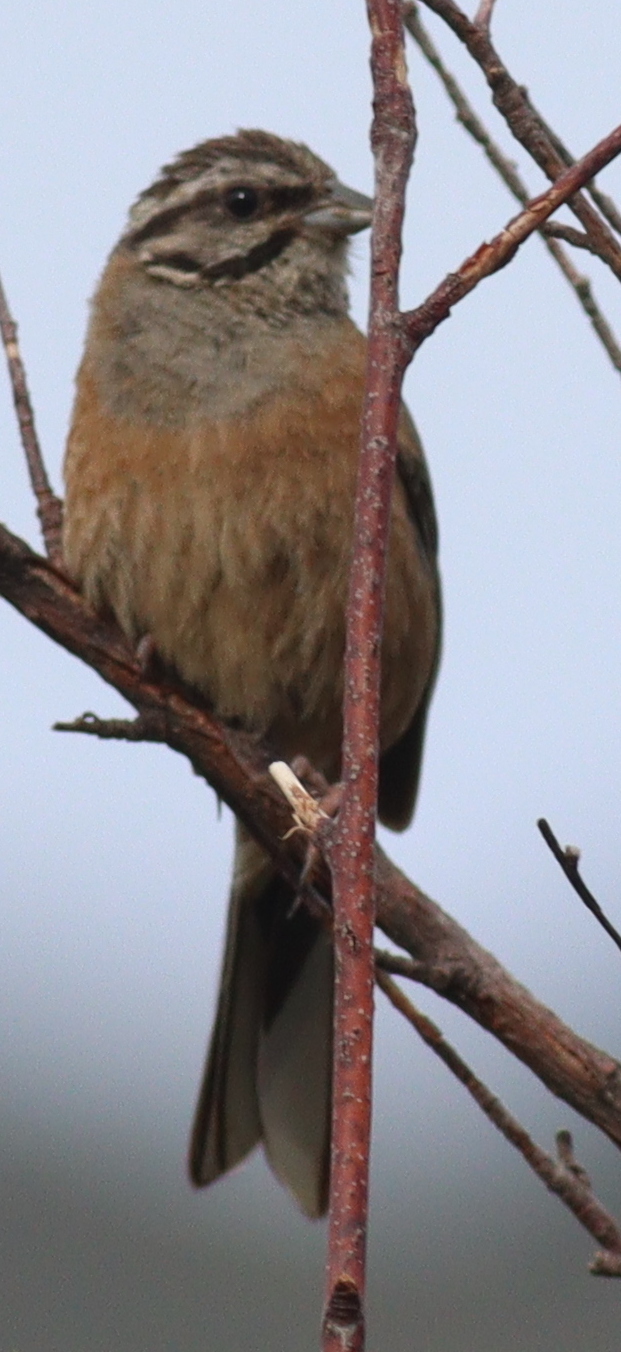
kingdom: Animalia
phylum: Chordata
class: Aves
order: Passeriformes
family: Emberizidae
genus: Emberiza
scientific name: Emberiza cia
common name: Rock bunting
